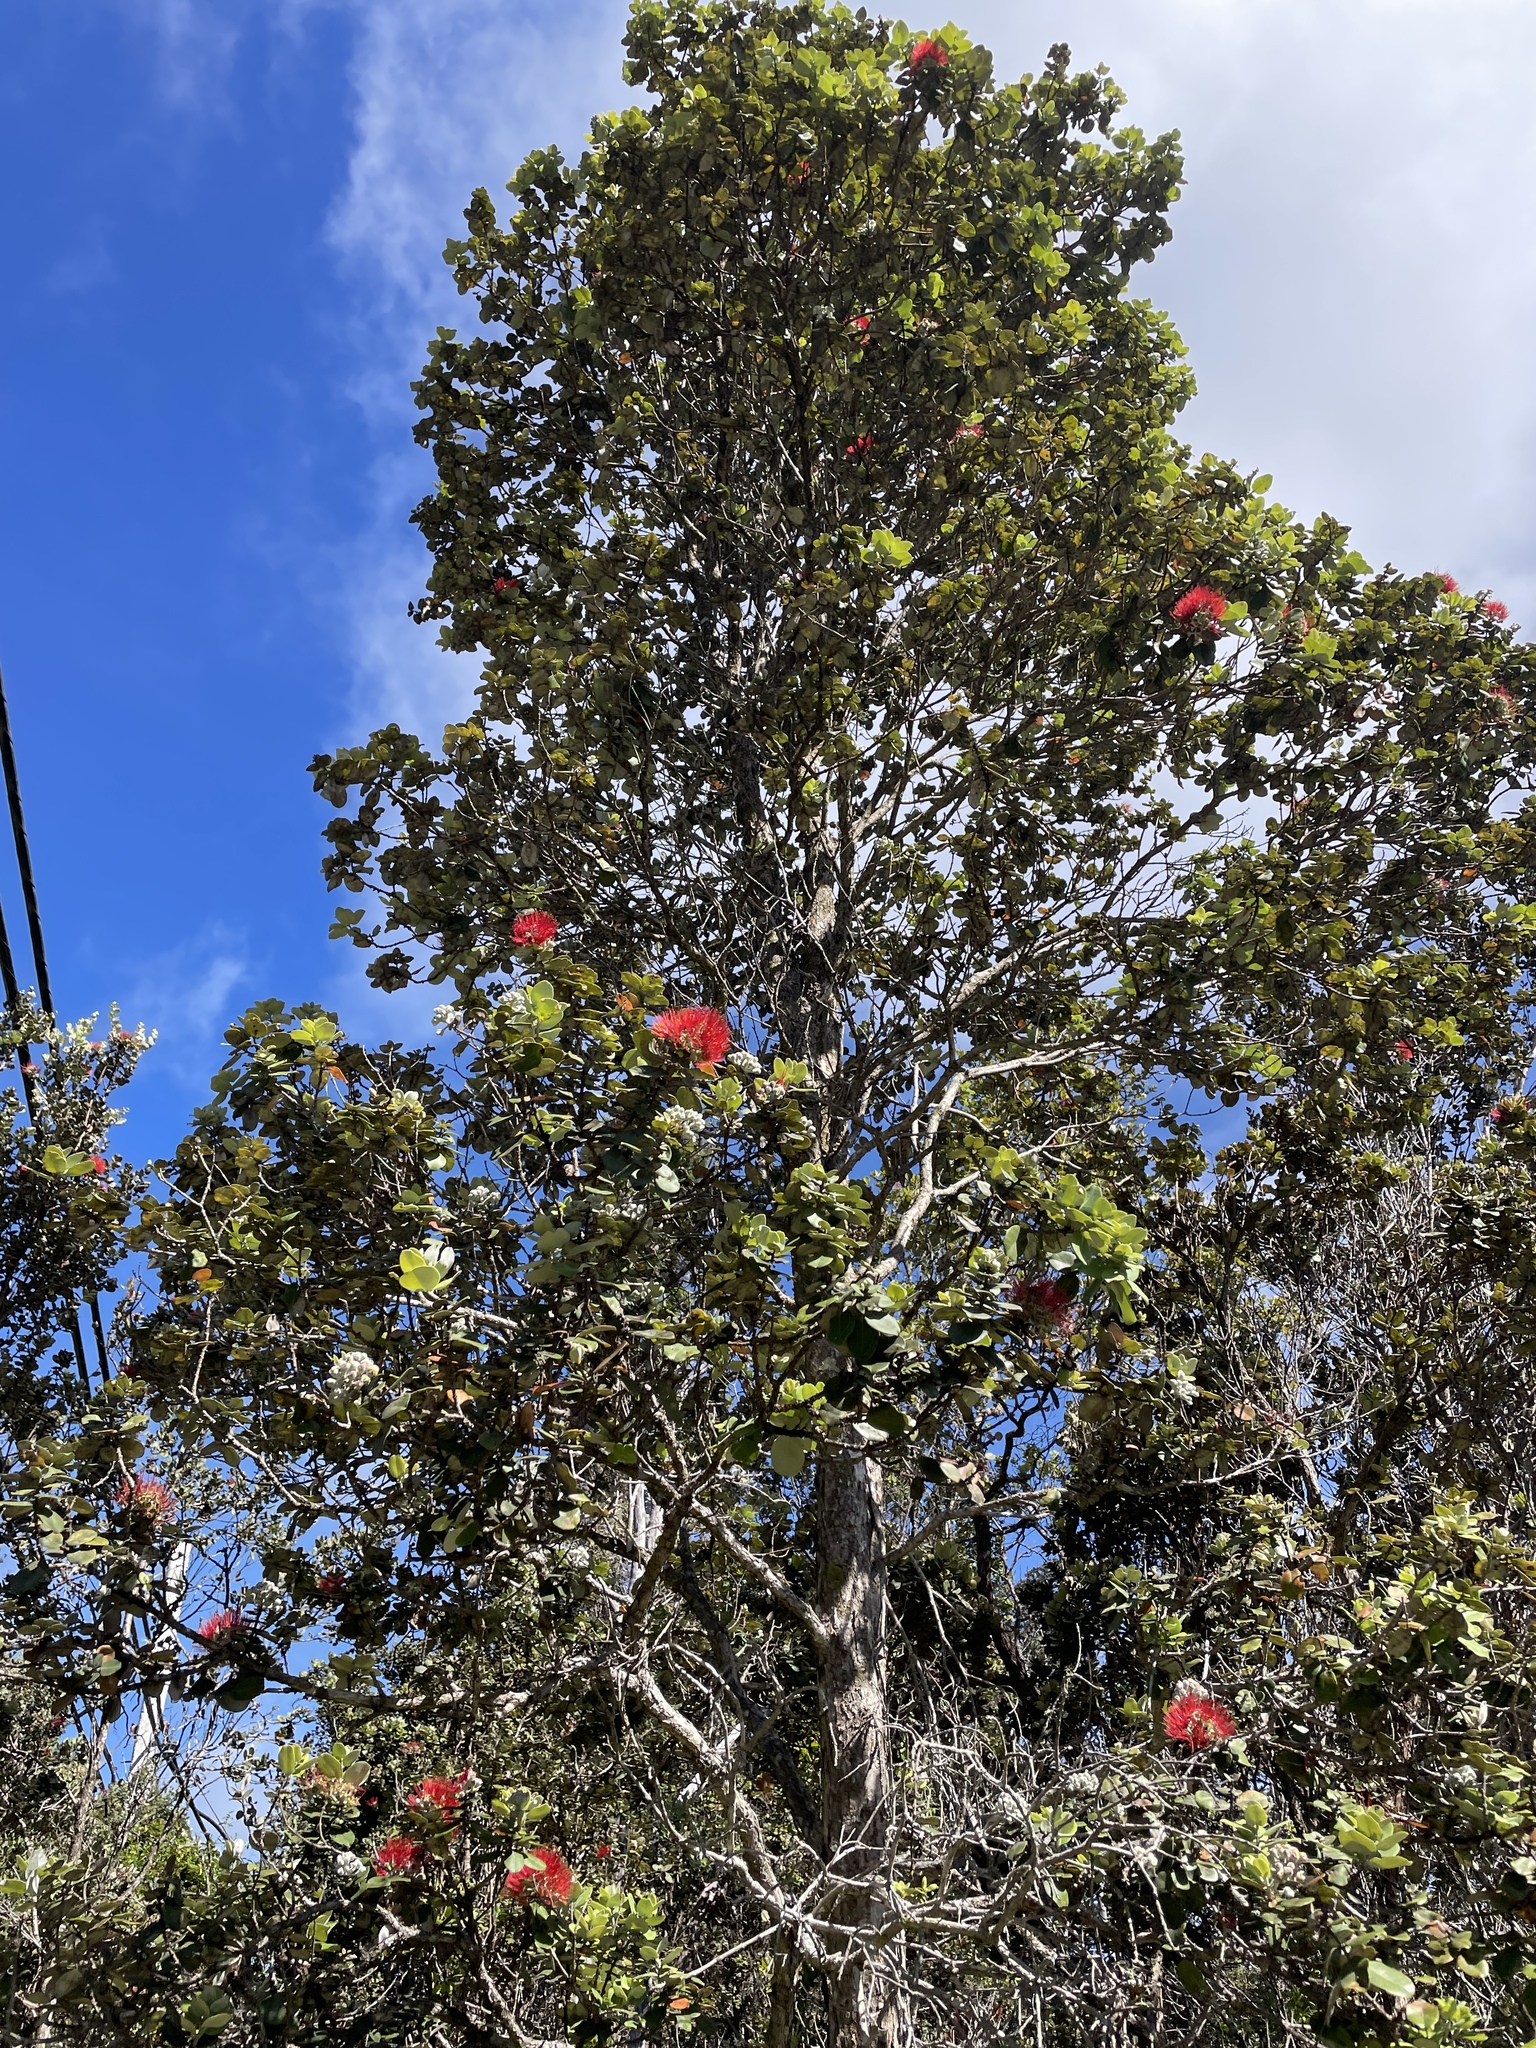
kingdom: Plantae
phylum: Tracheophyta
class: Magnoliopsida
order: Myrtales
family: Myrtaceae
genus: Metrosideros
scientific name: Metrosideros polymorpha
